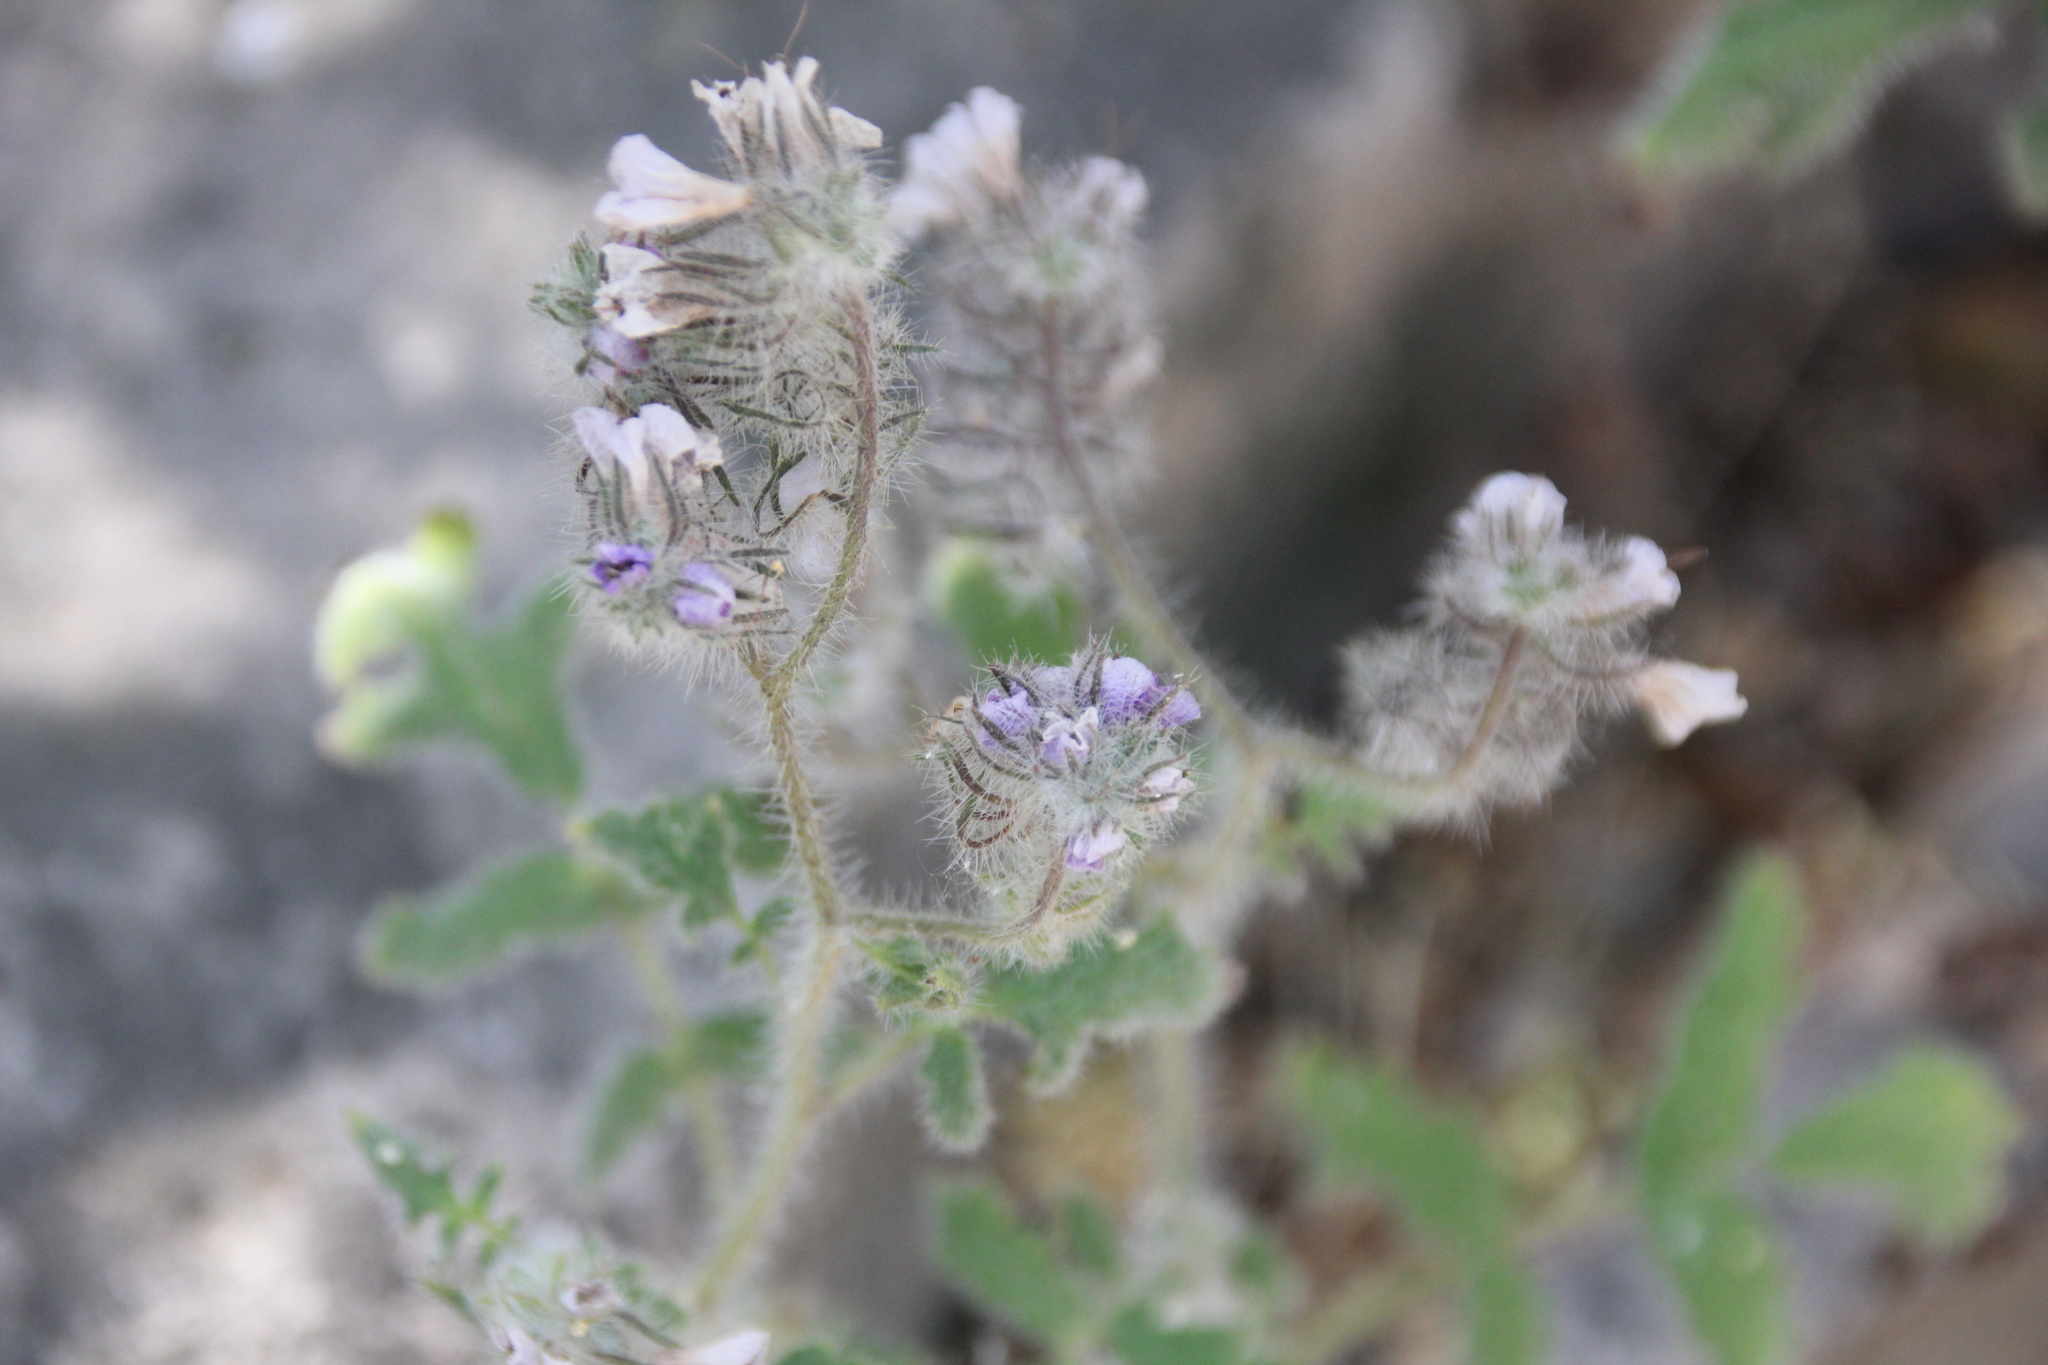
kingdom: Plantae
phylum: Tracheophyta
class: Magnoliopsida
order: Boraginales
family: Hydrophyllaceae
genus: Phacelia
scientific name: Phacelia cicutaria
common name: Caterpillar phacelia
